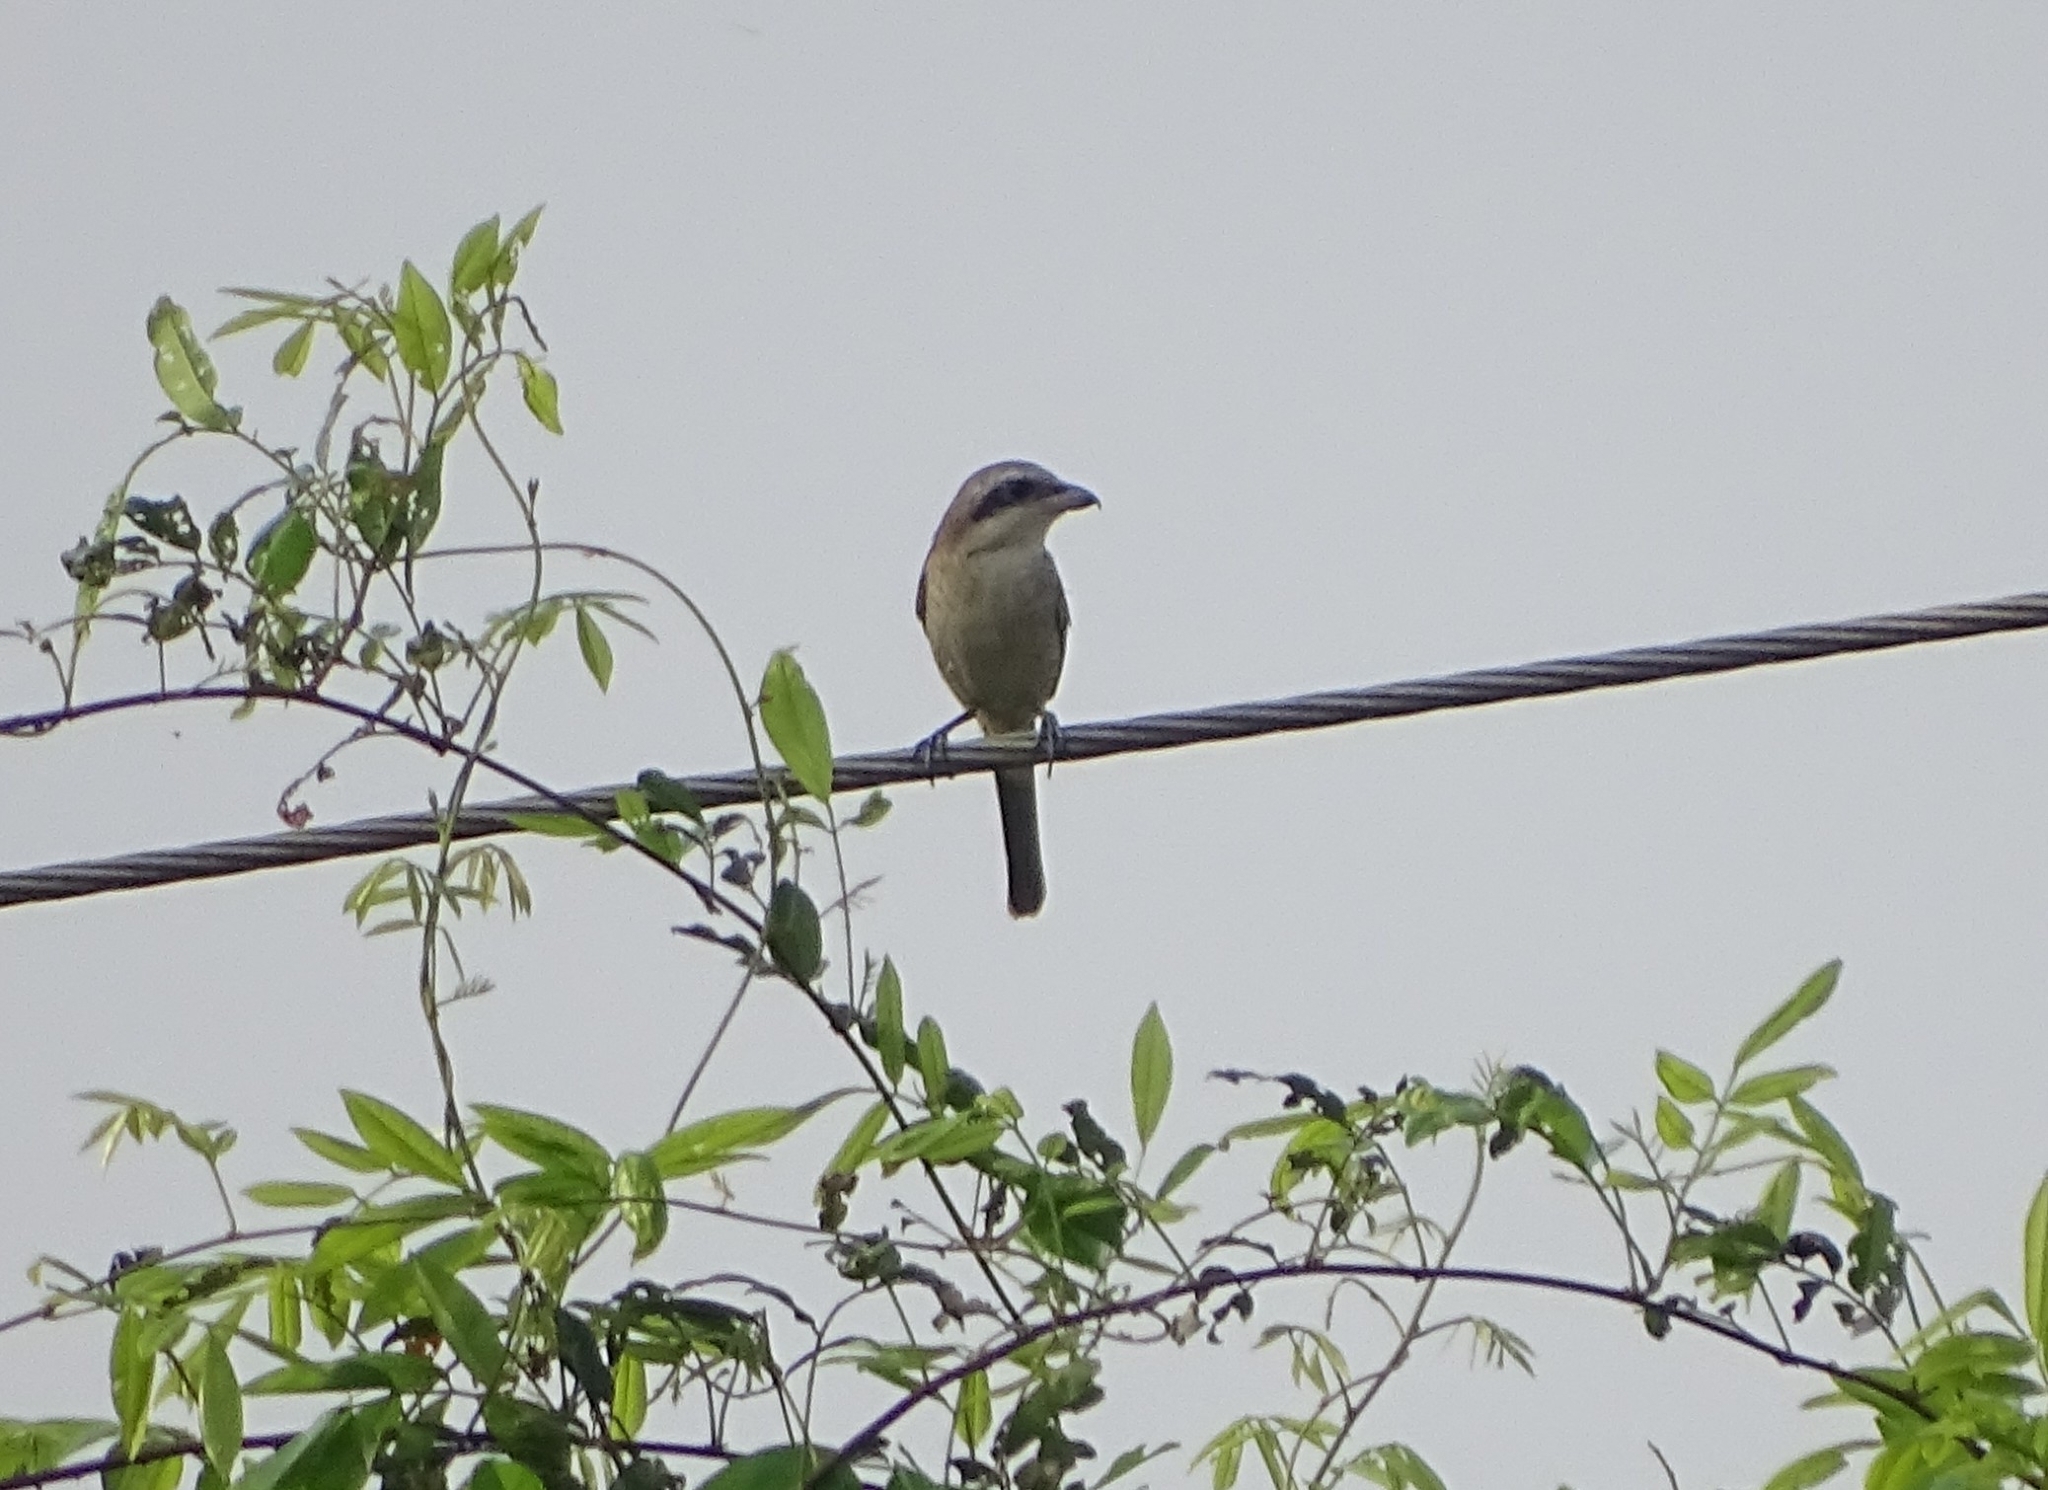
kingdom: Animalia
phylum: Chordata
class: Aves
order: Passeriformes
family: Laniidae
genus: Lanius
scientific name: Lanius cristatus
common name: Brown shrike
